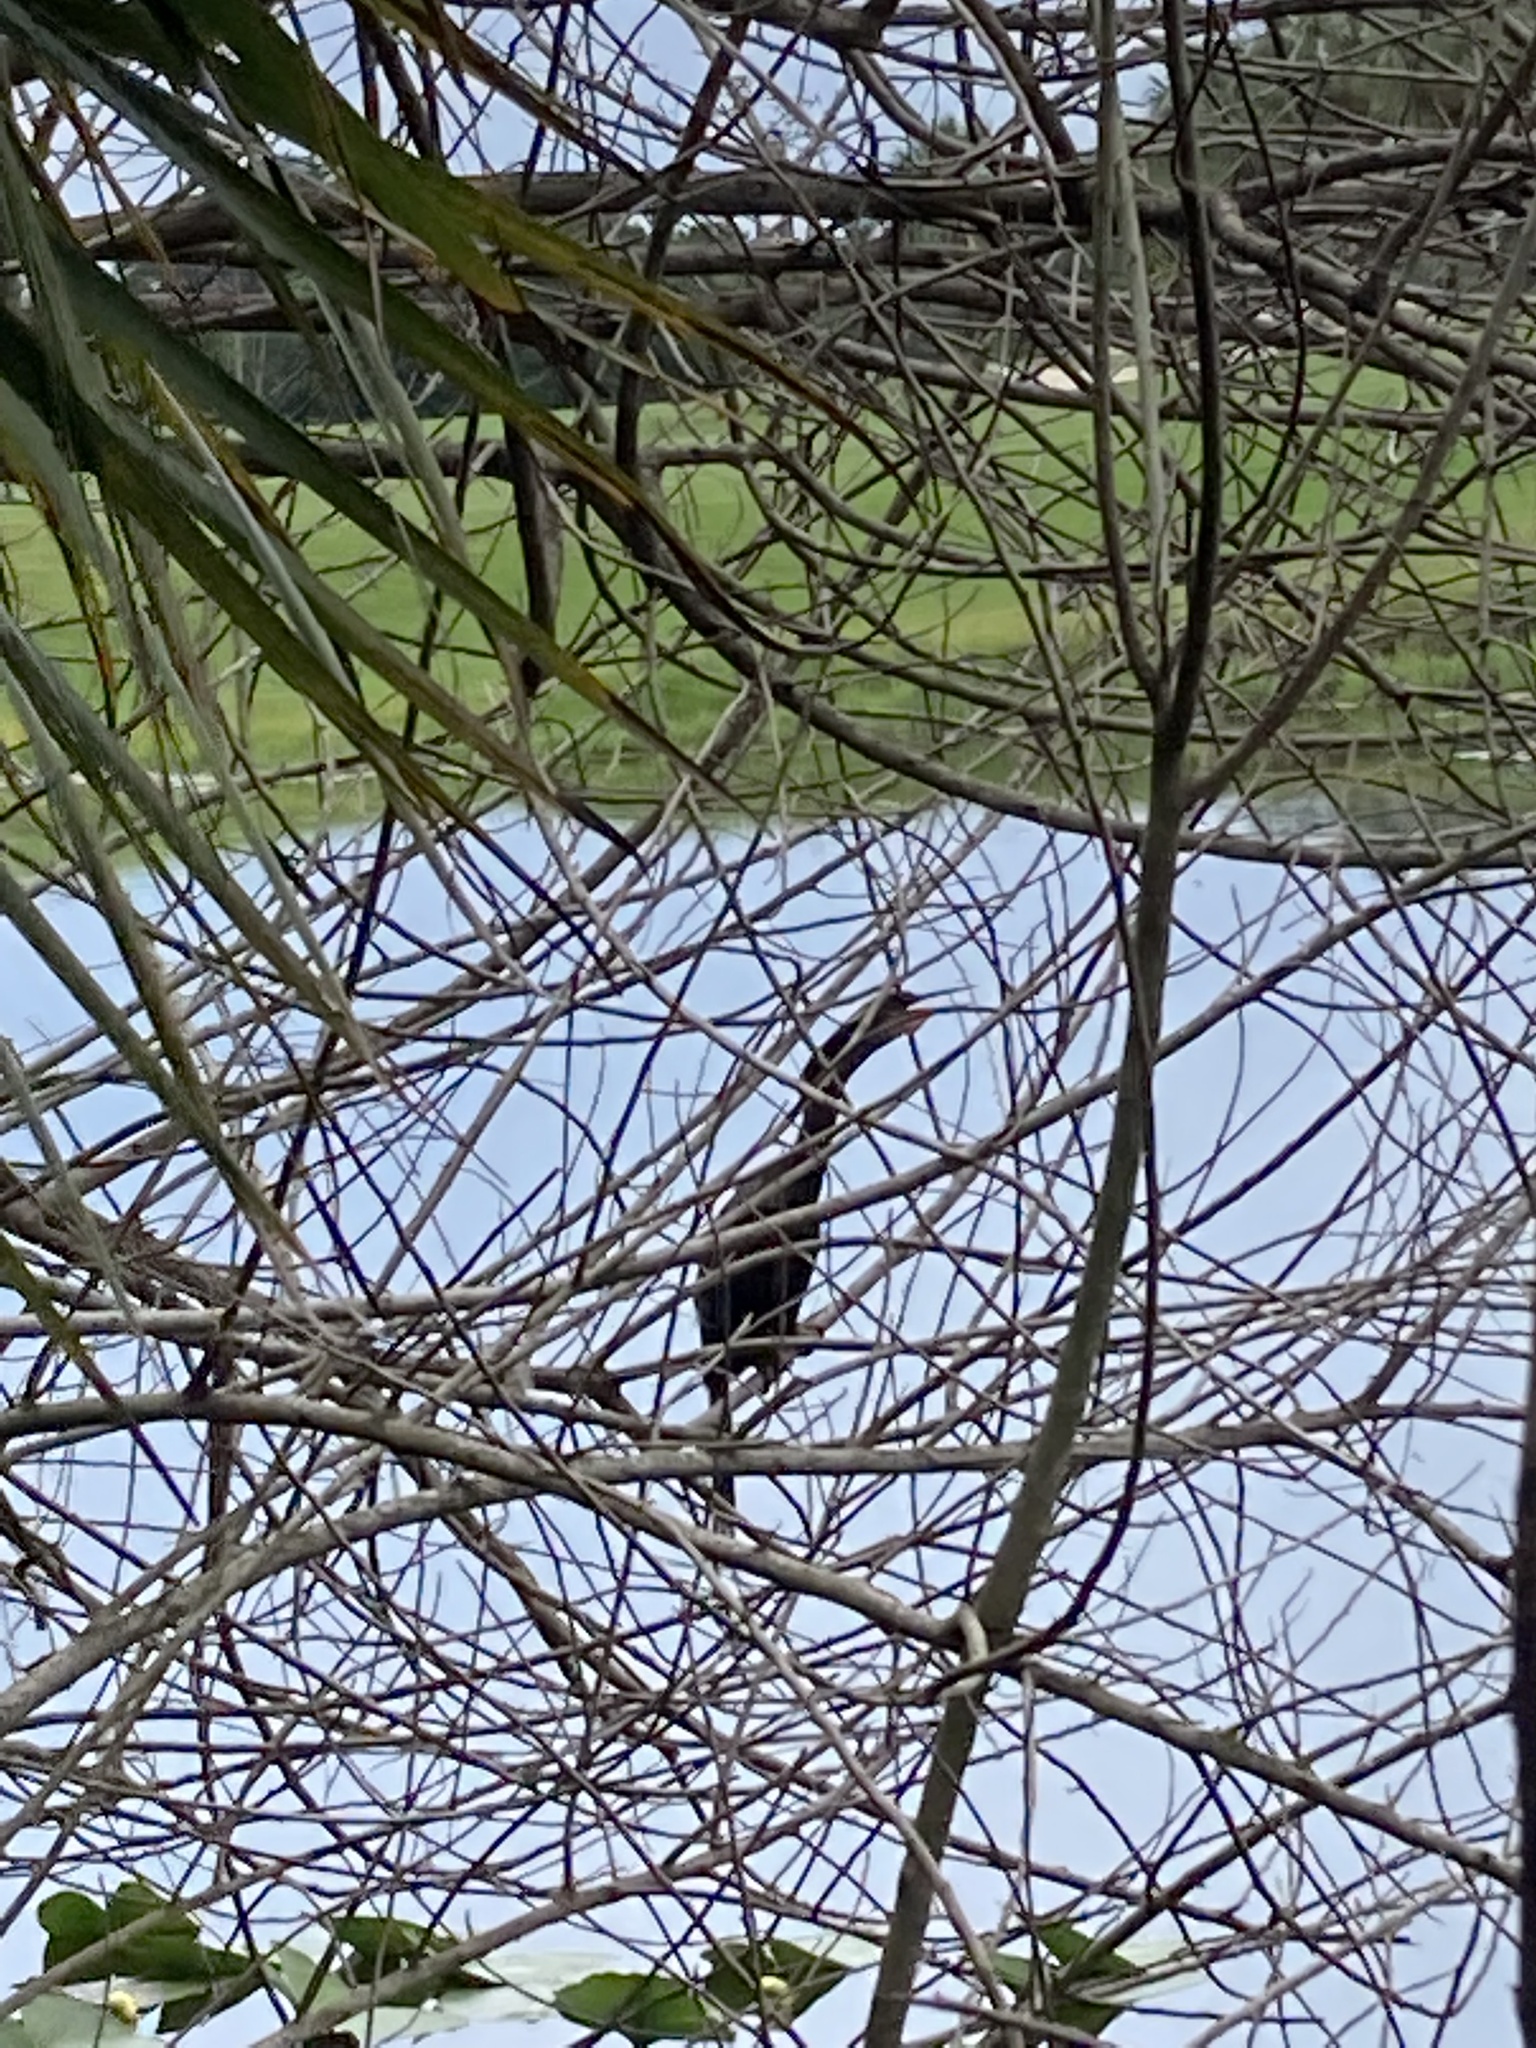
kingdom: Animalia
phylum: Chordata
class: Aves
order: Suliformes
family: Anhingidae
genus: Anhinga
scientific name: Anhinga anhinga
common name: Anhinga
